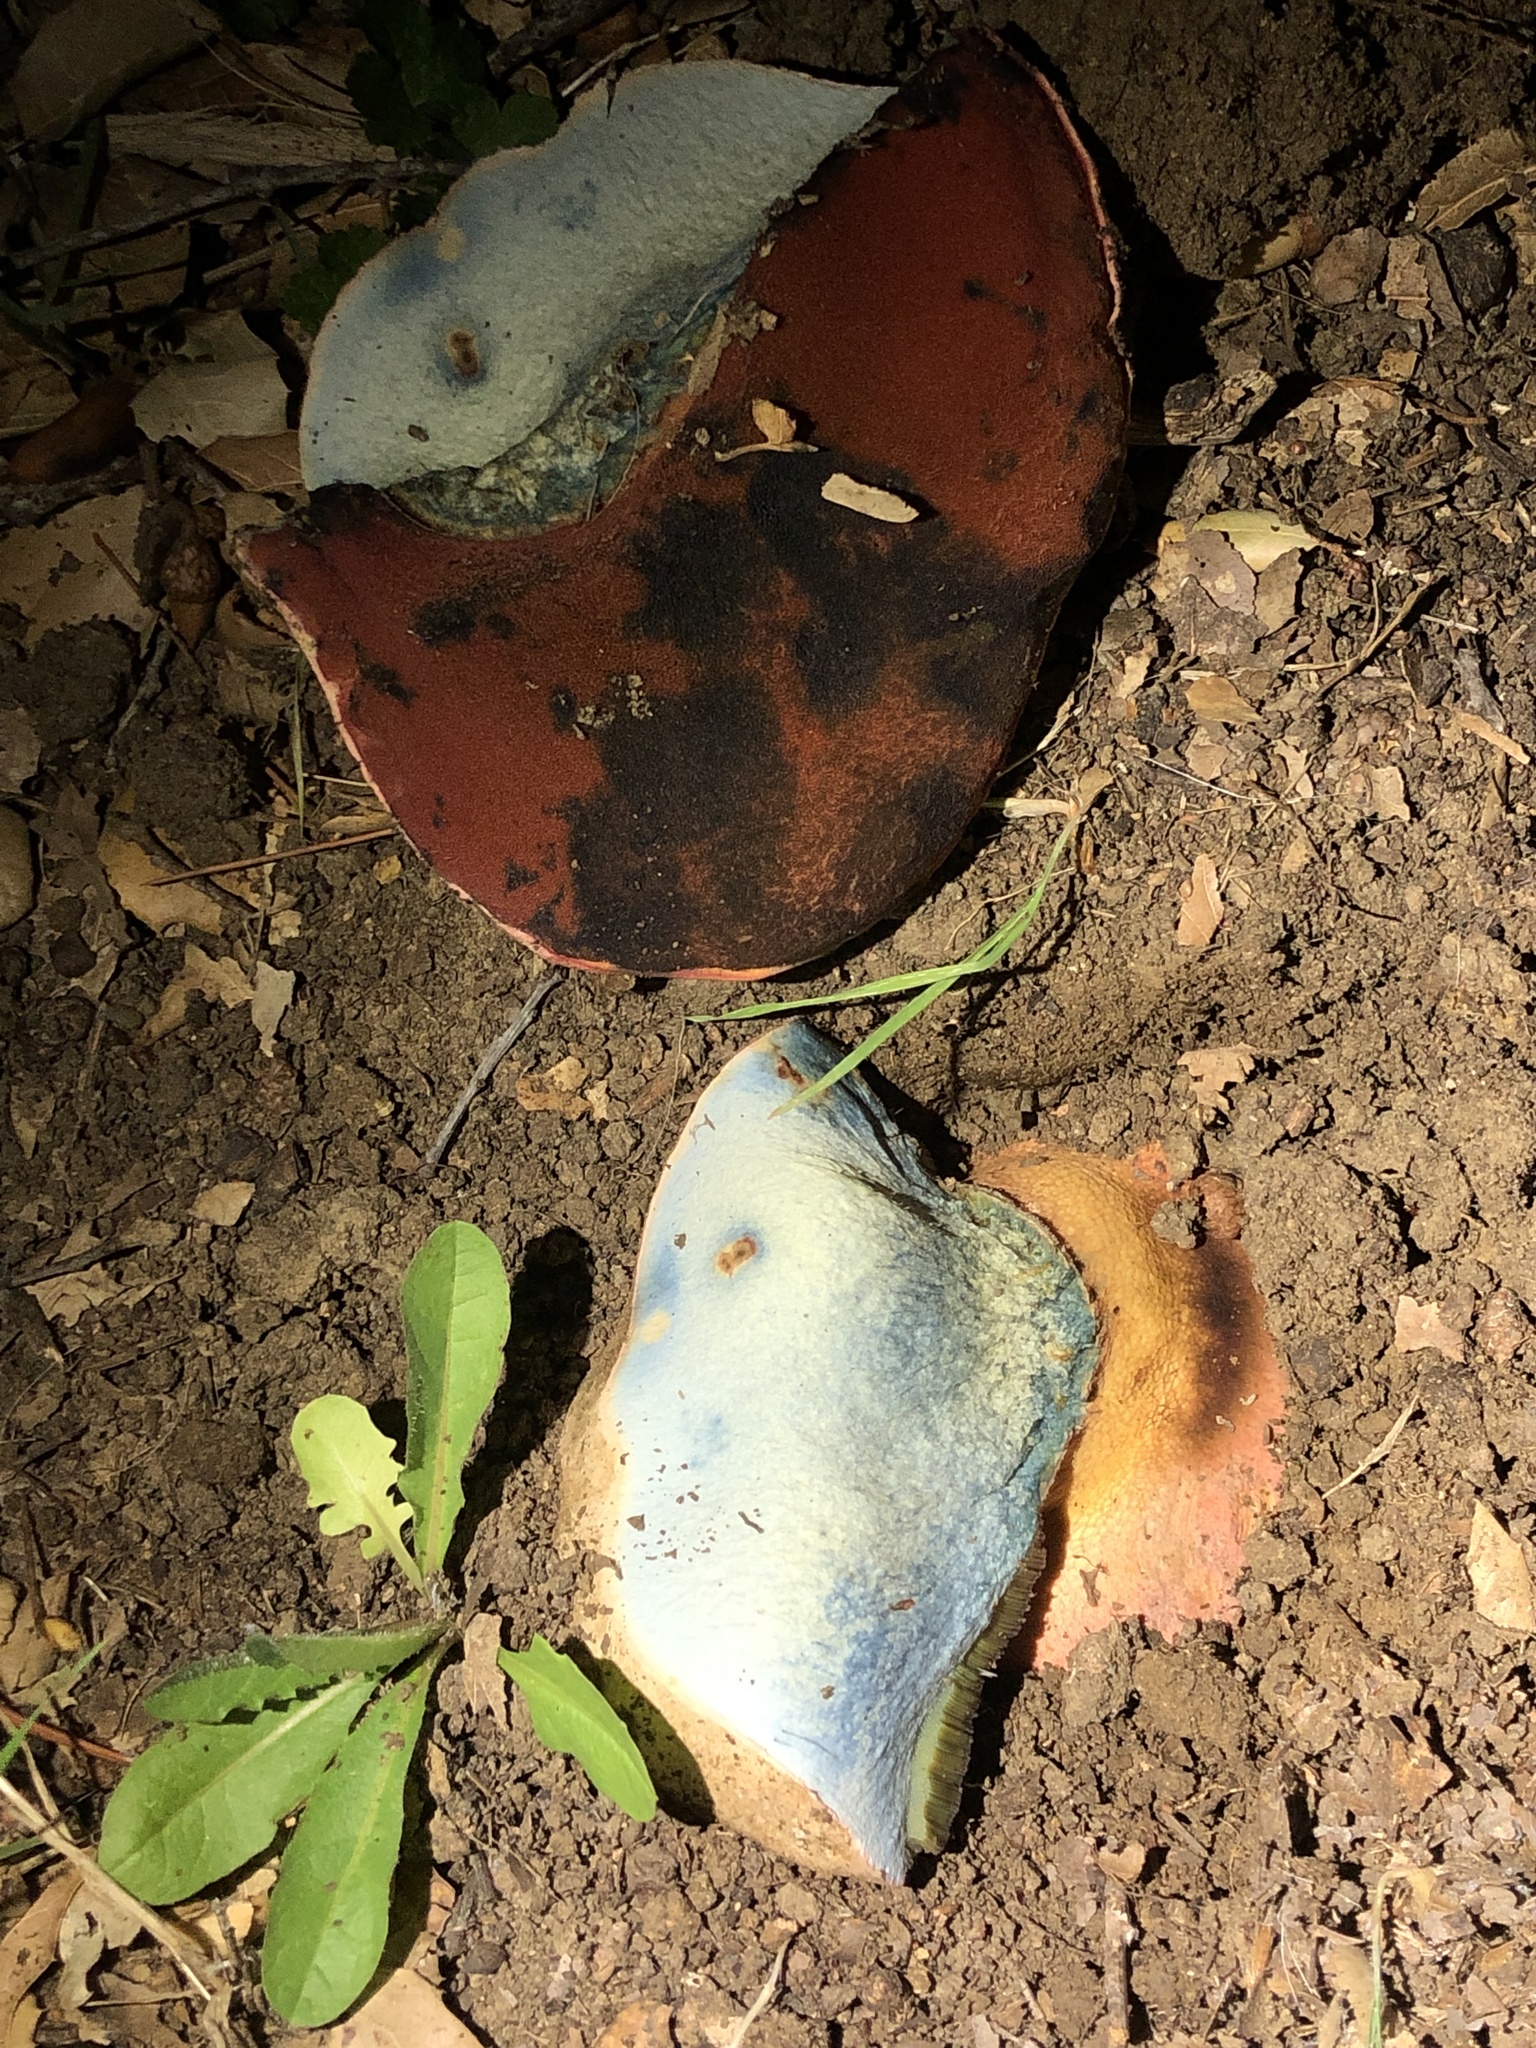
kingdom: Fungi
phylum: Basidiomycota
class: Agaricomycetes
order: Boletales
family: Boletaceae
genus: Rubroboletus
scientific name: Rubroboletus eastwoodiae
